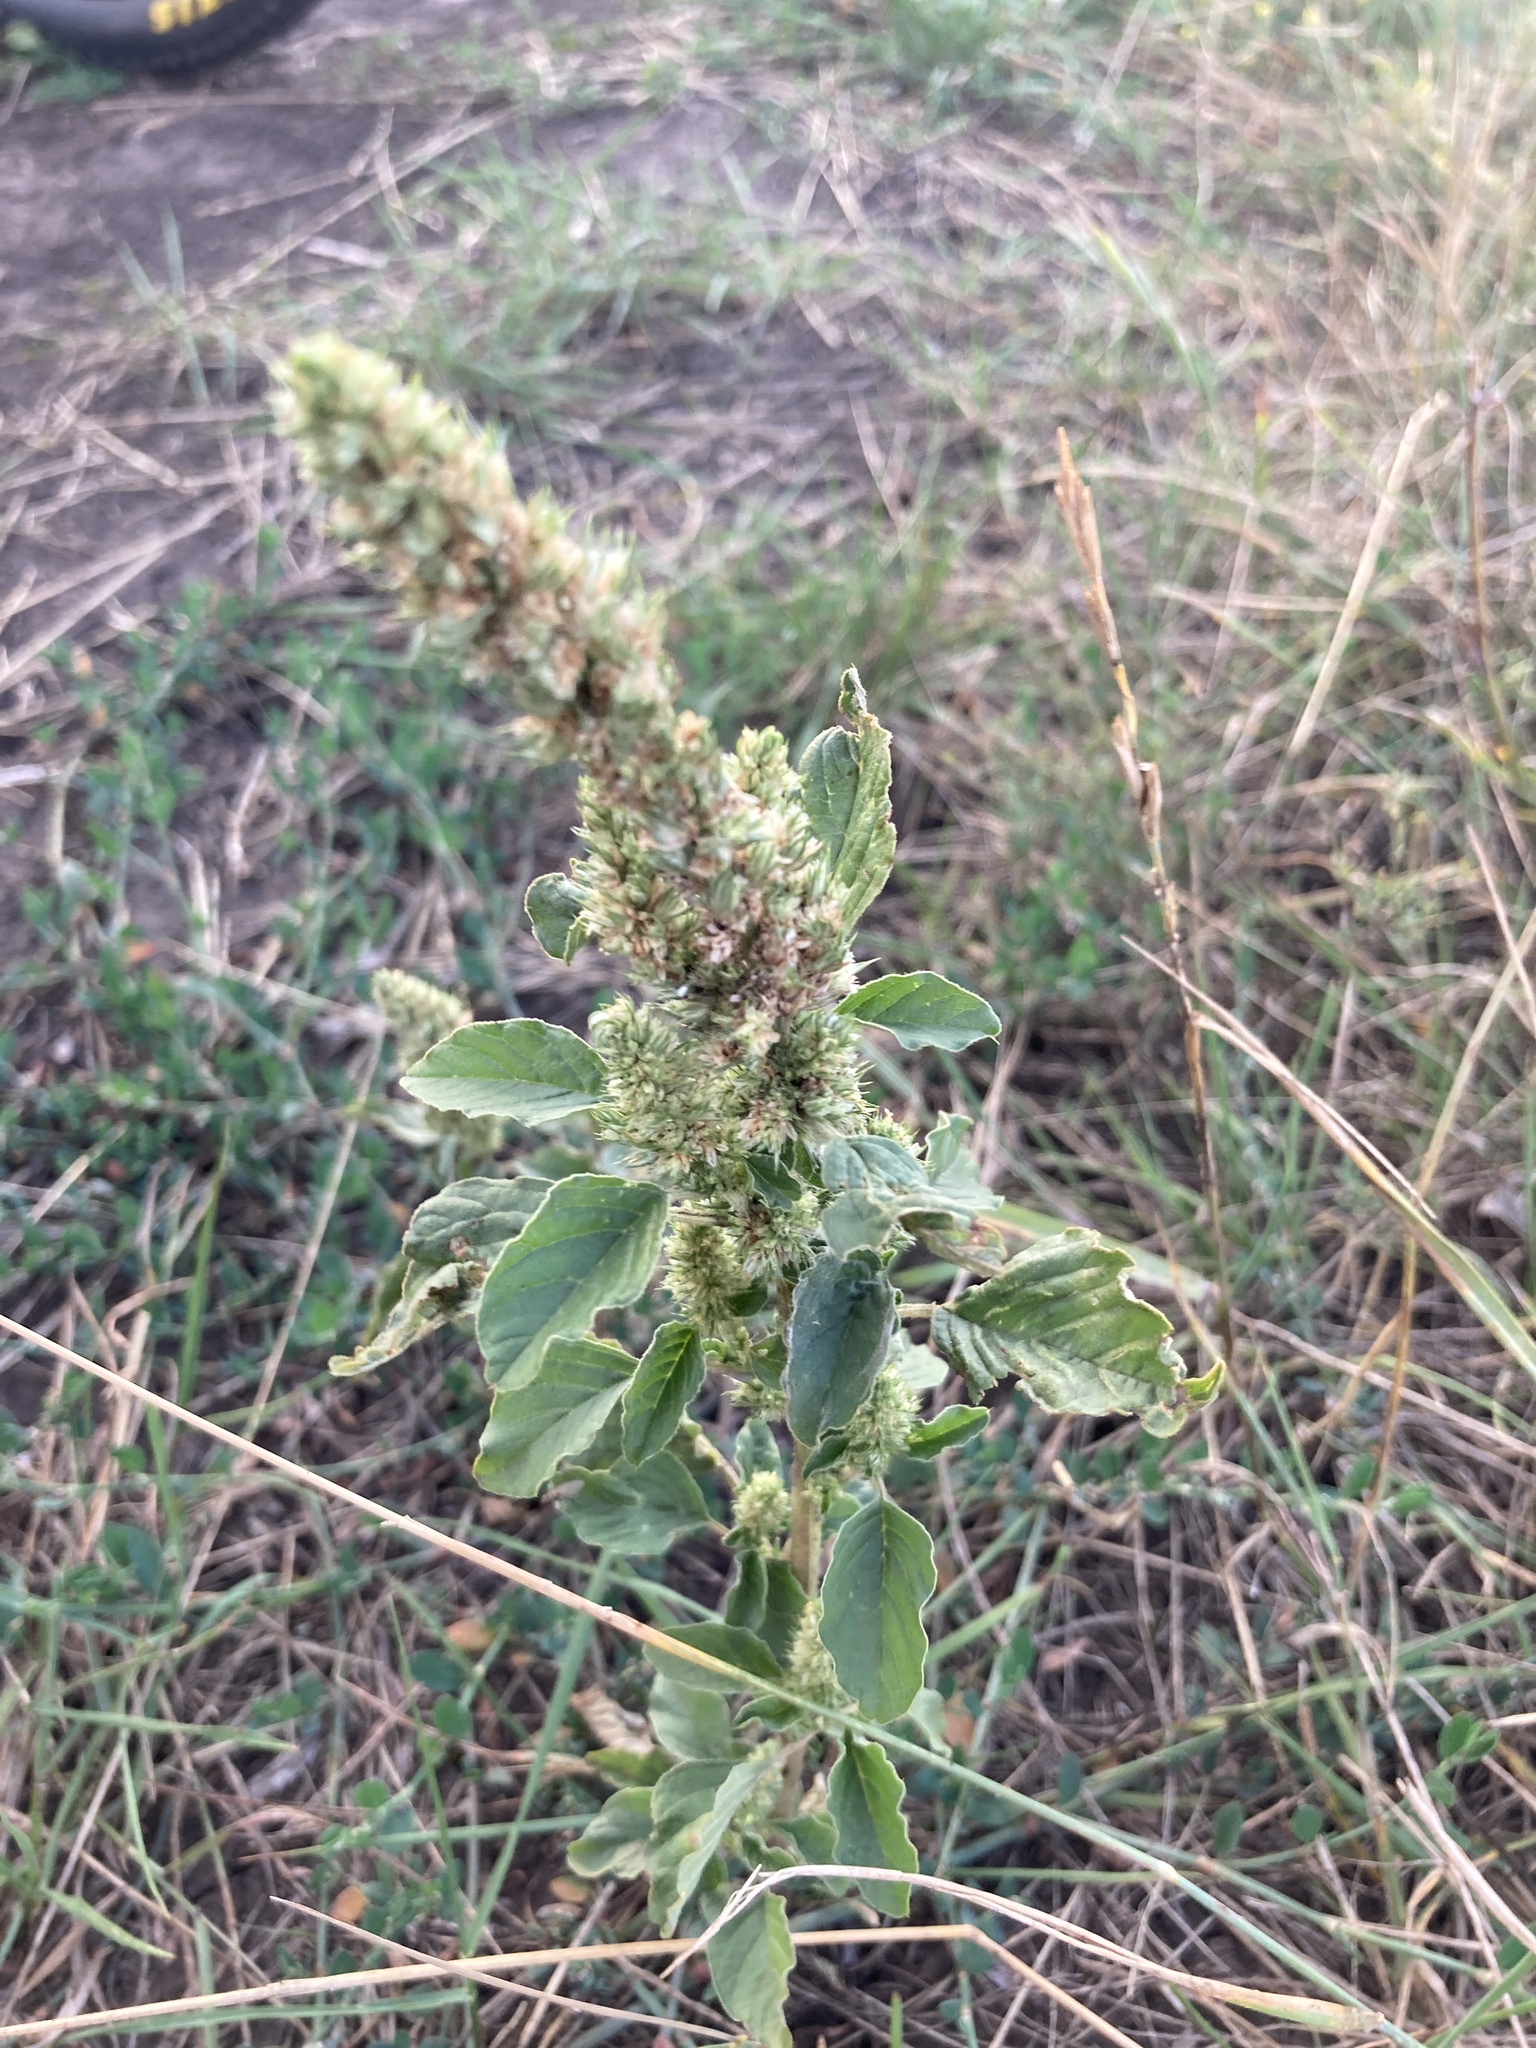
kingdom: Plantae
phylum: Tracheophyta
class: Magnoliopsida
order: Caryophyllales
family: Amaranthaceae
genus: Amaranthus
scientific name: Amaranthus retroflexus
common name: Redroot amaranth
